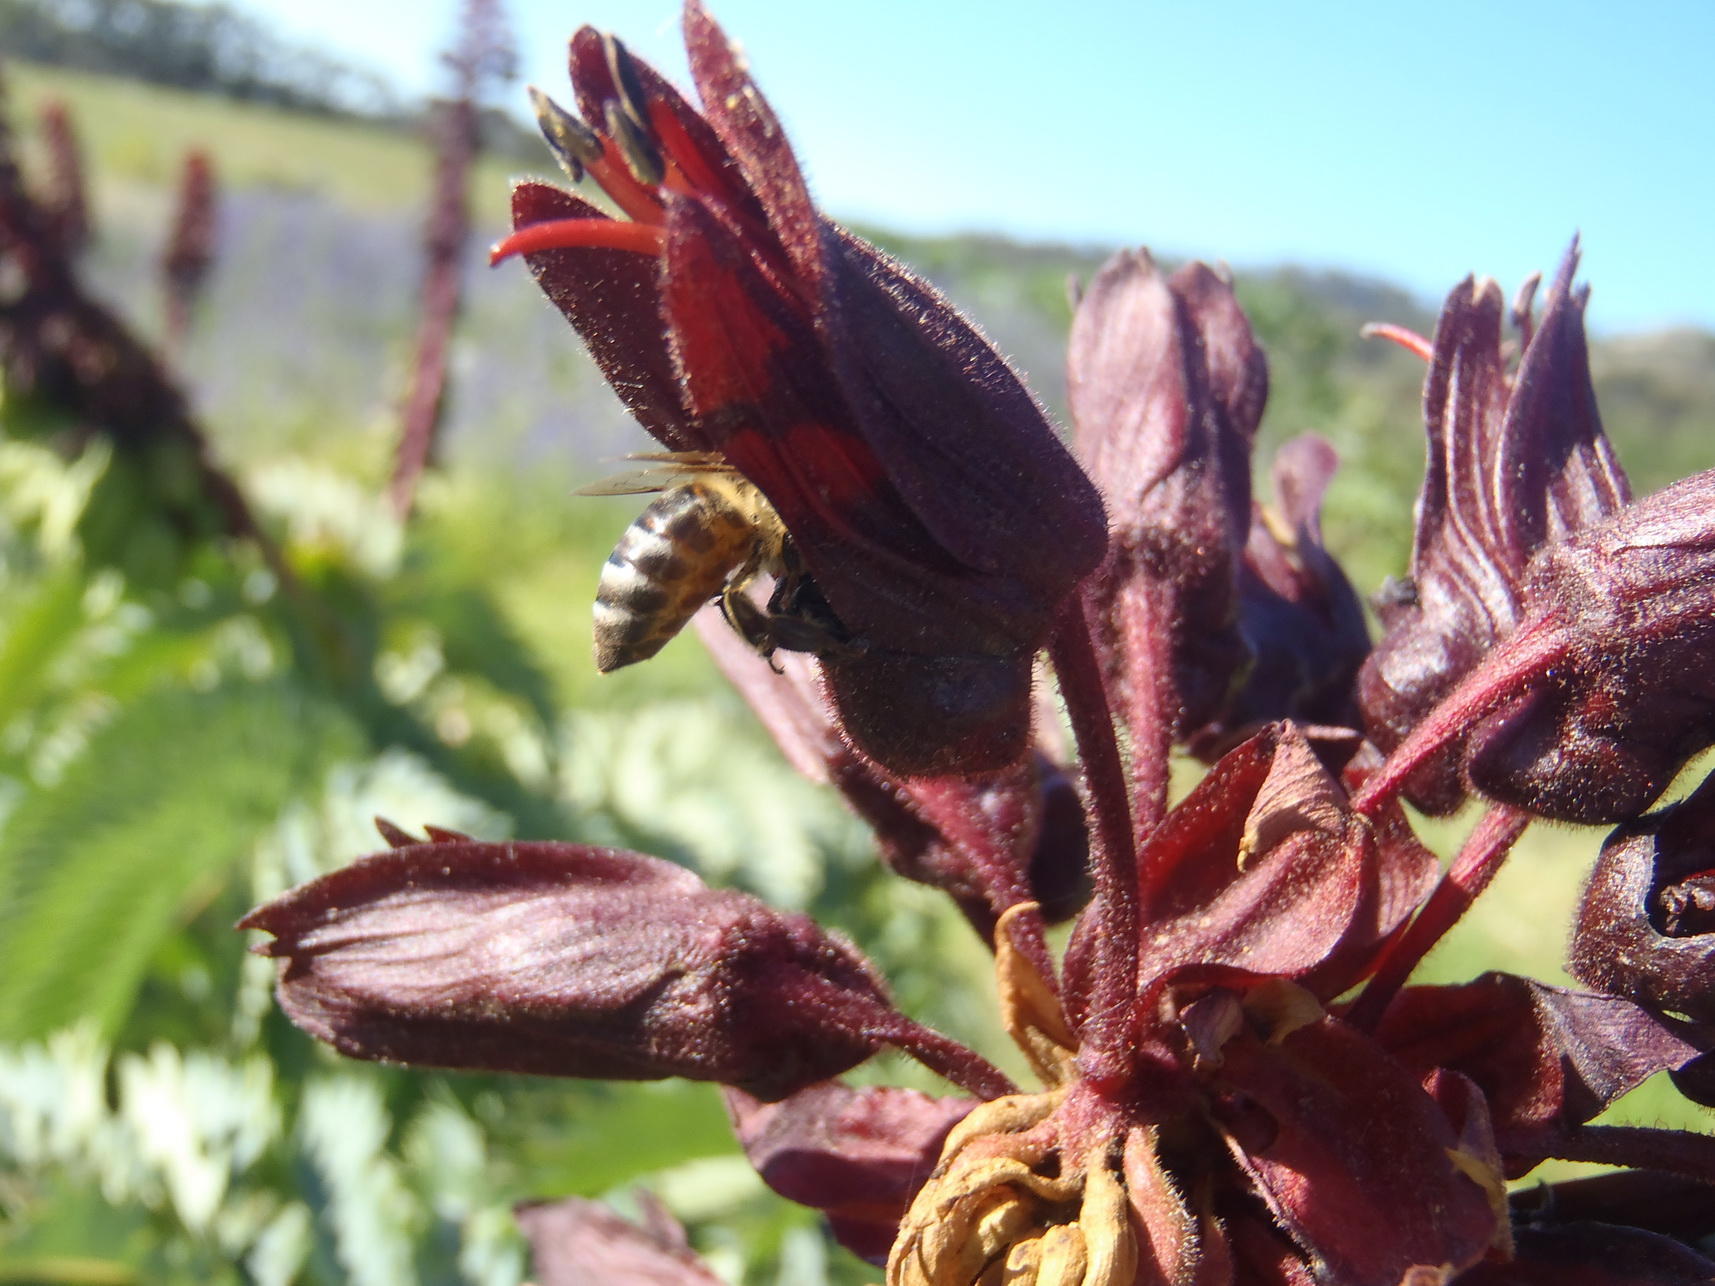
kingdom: Plantae
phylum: Tracheophyta
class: Magnoliopsida
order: Geraniales
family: Melianthaceae
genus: Melianthus
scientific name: Melianthus major
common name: Honey-flower
